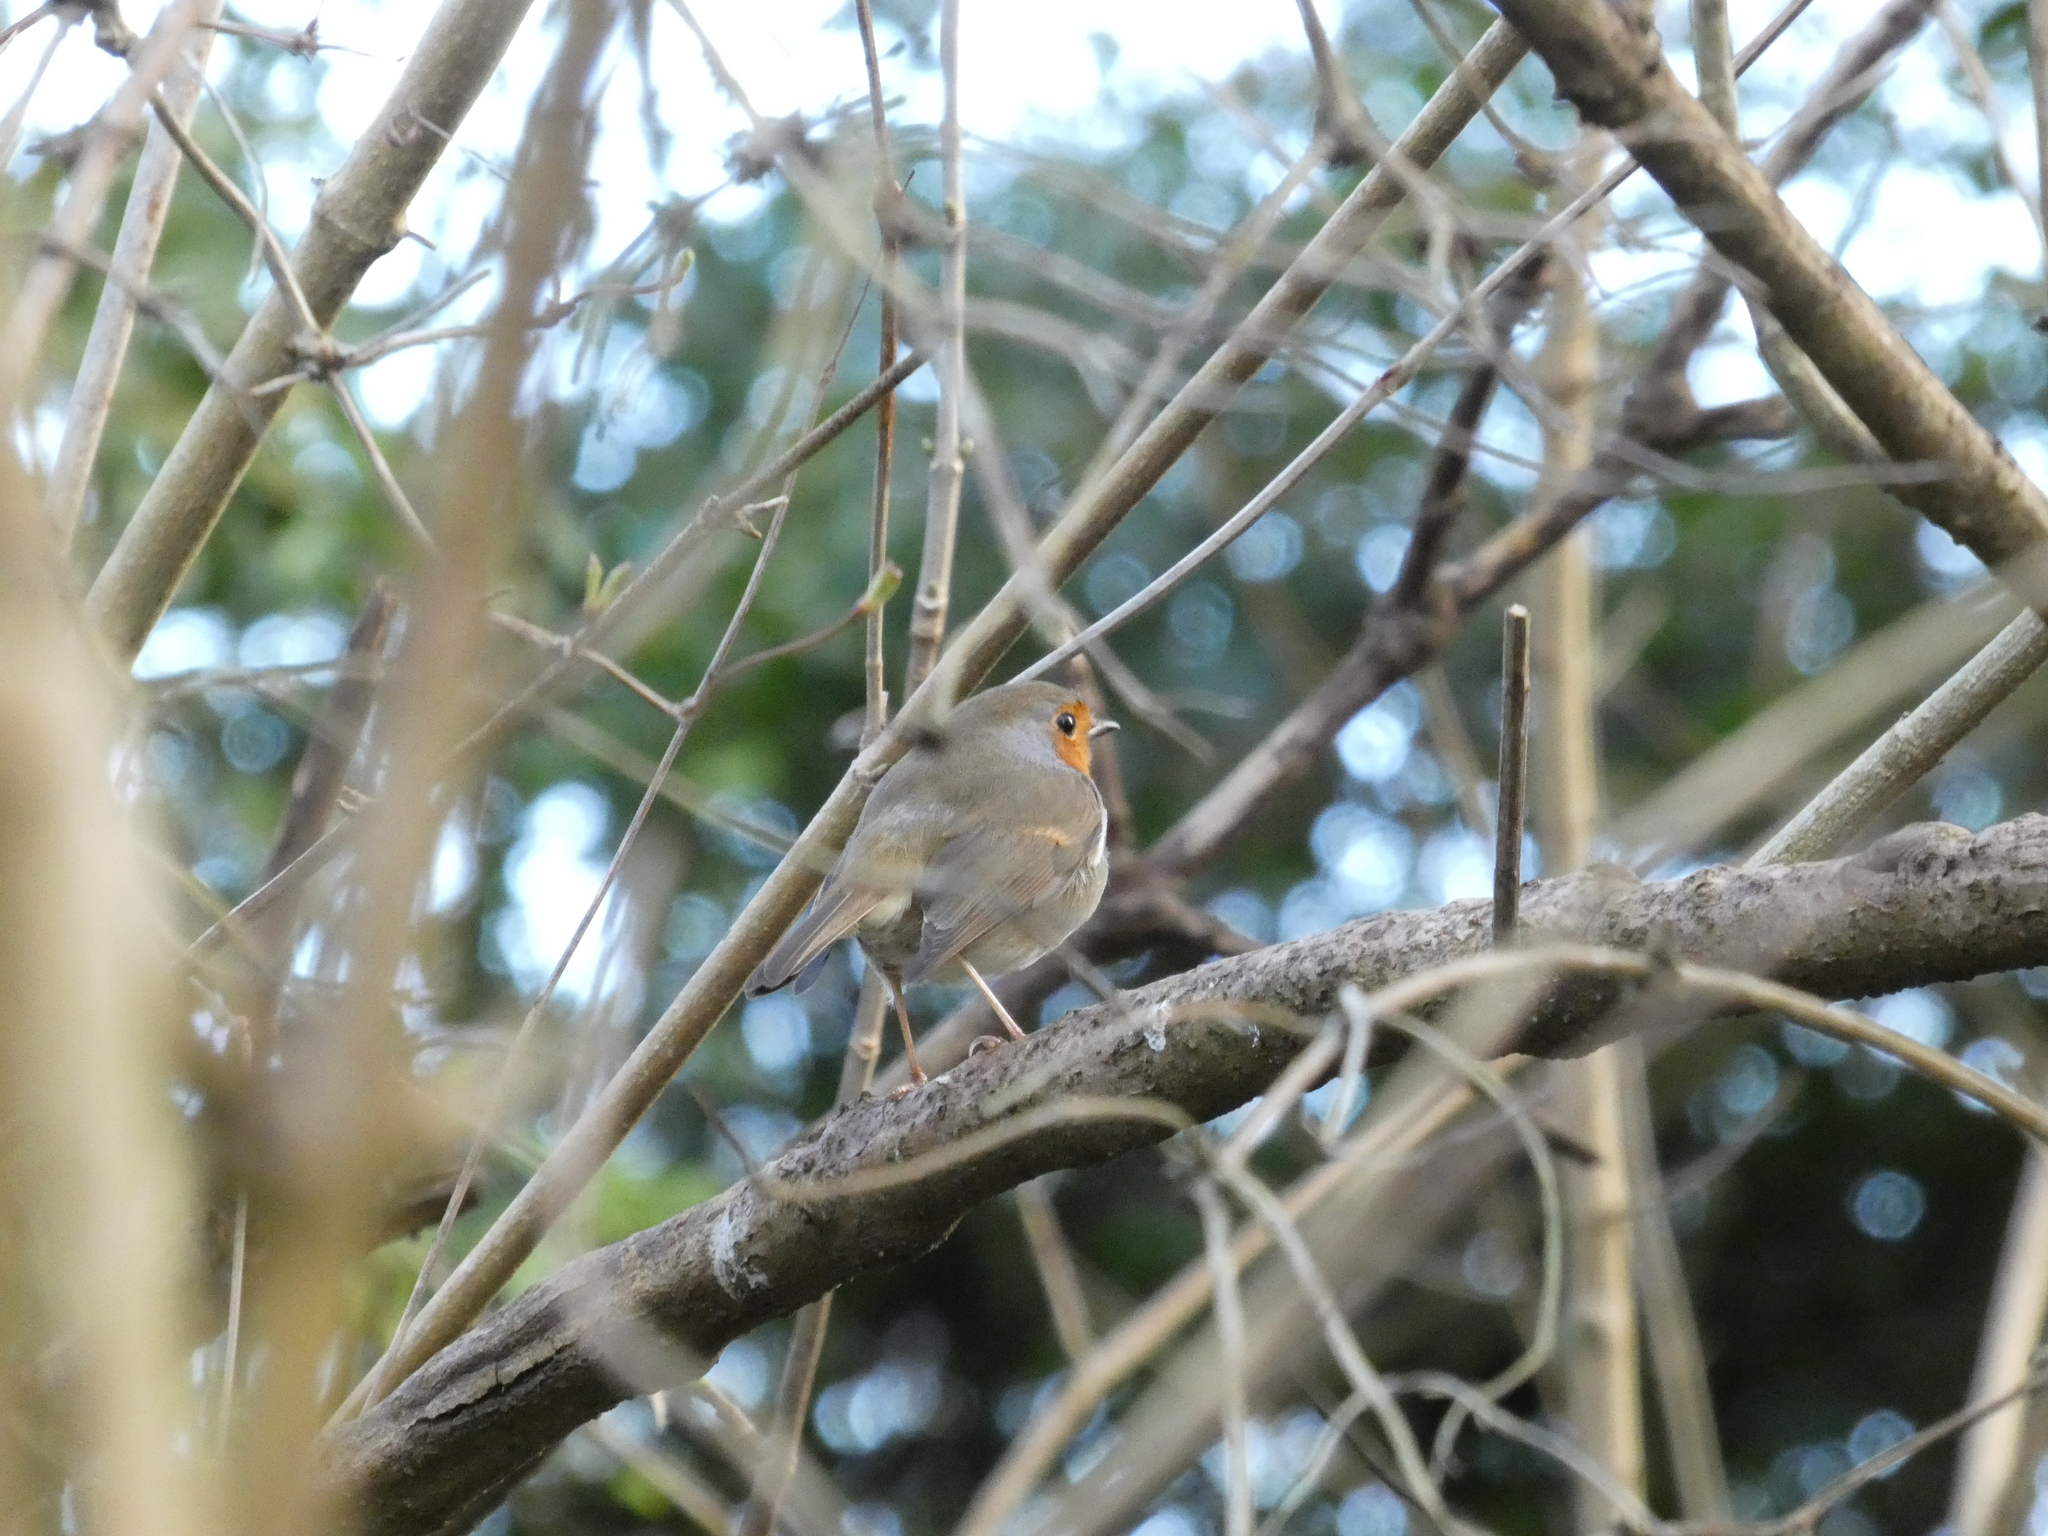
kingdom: Animalia
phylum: Chordata
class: Aves
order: Passeriformes
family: Muscicapidae
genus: Erithacus
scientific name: Erithacus rubecula
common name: European robin
